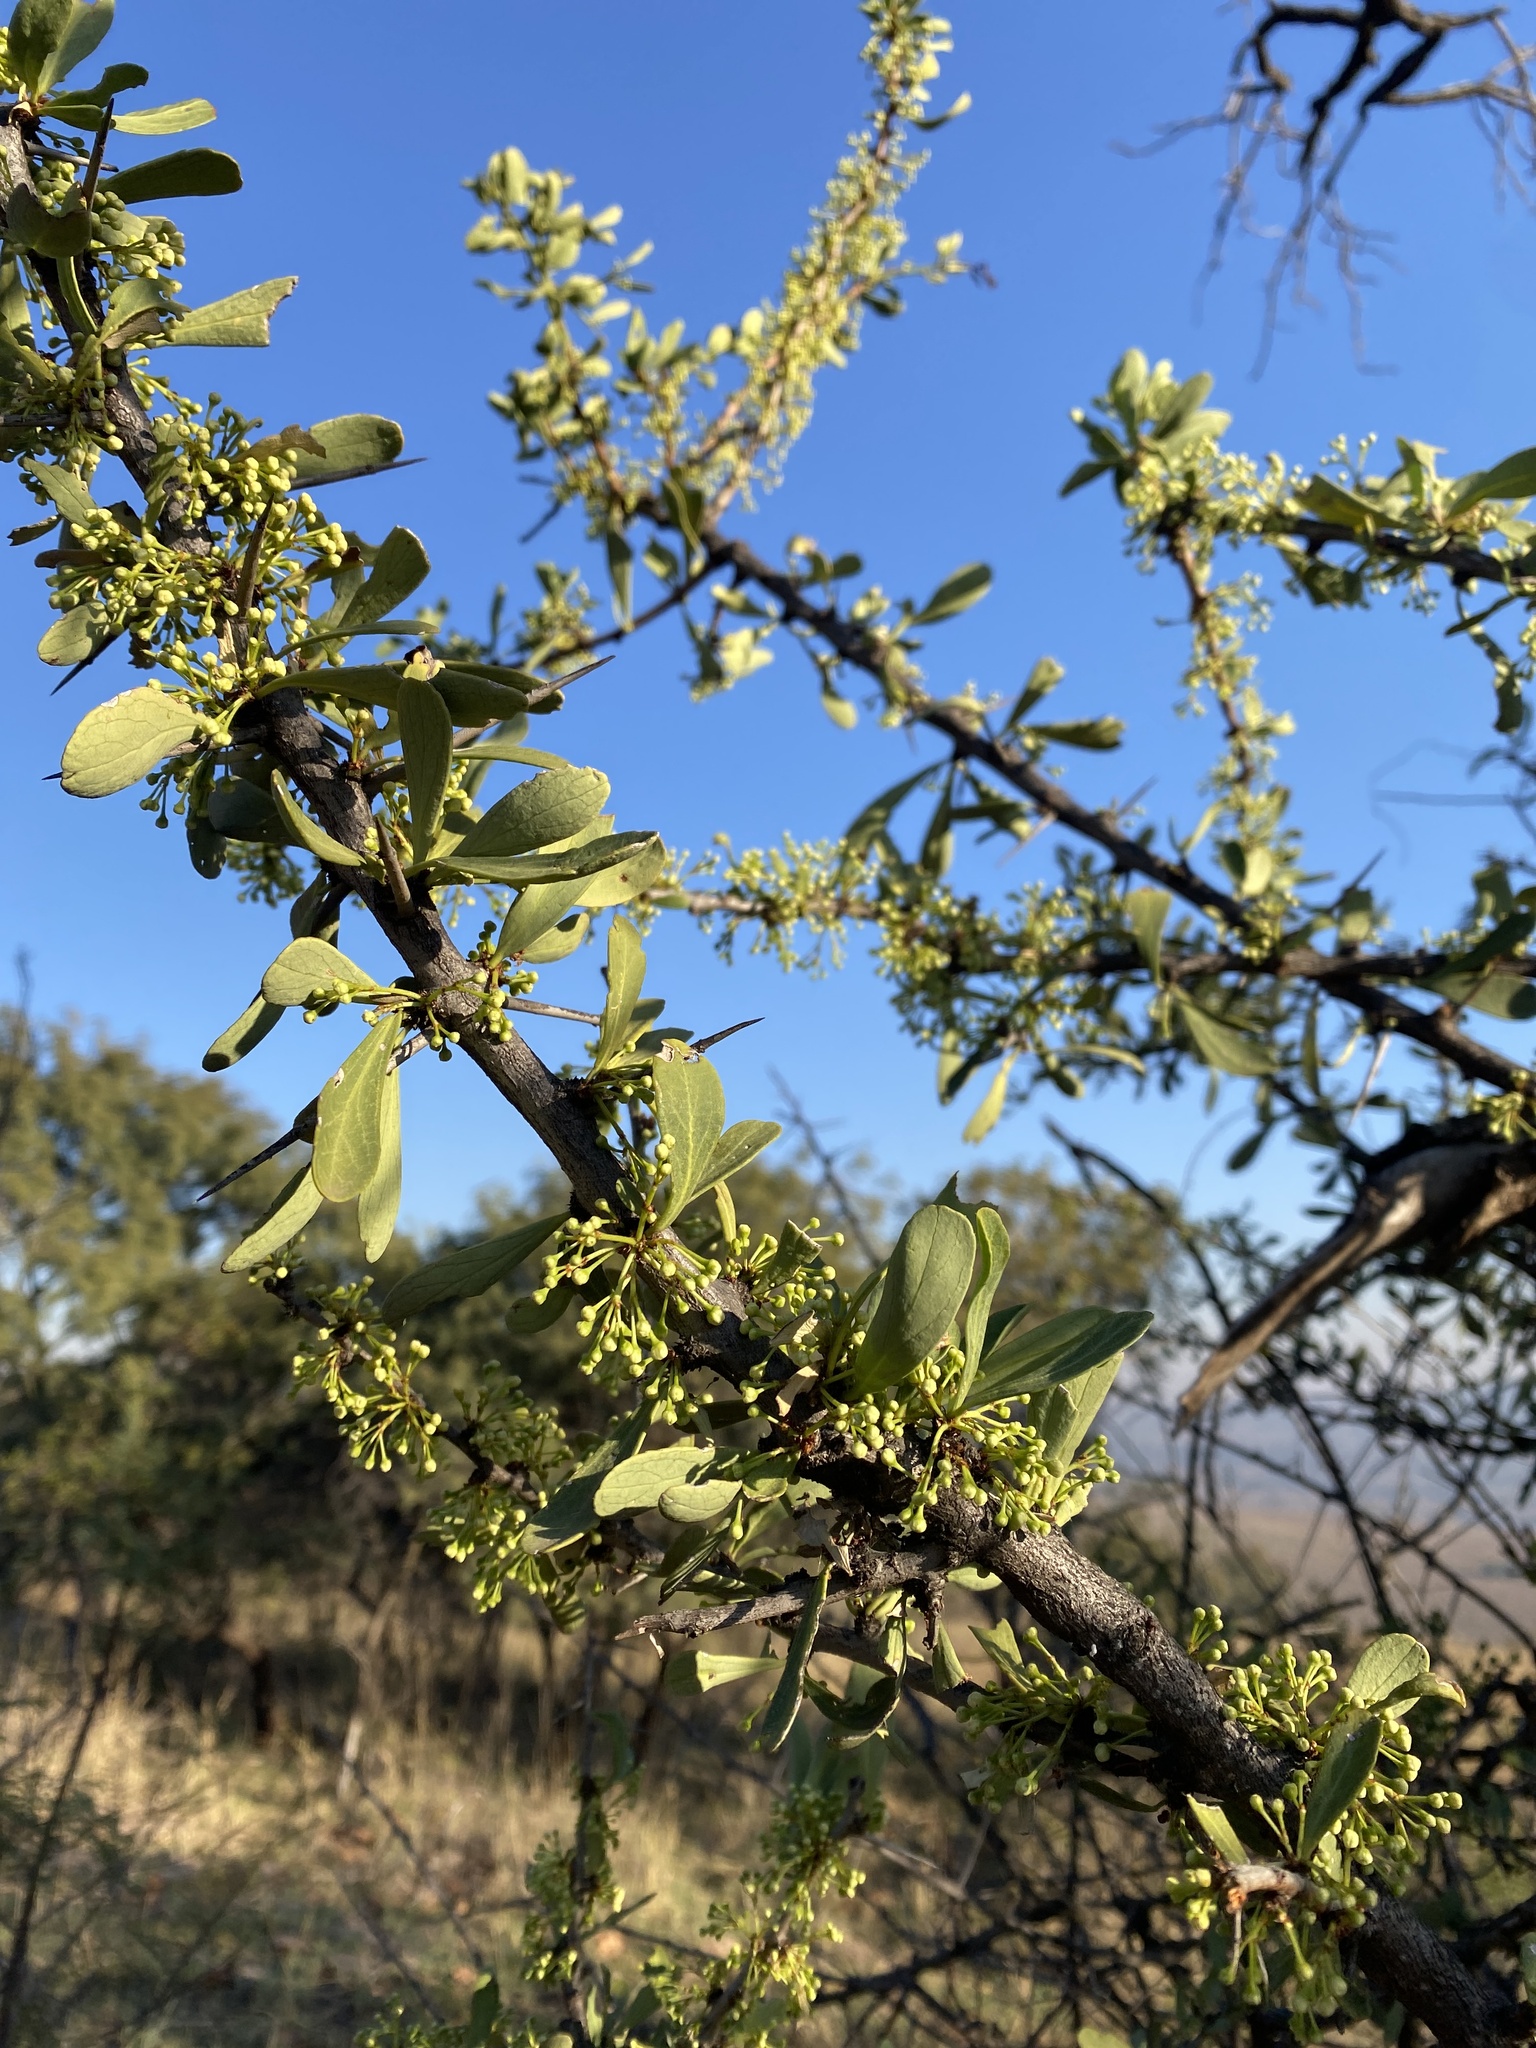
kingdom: Plantae
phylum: Tracheophyta
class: Magnoliopsida
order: Celastrales
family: Celastraceae
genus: Gymnosporia
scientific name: Gymnosporia buxifolia
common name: Common spike-thorn
